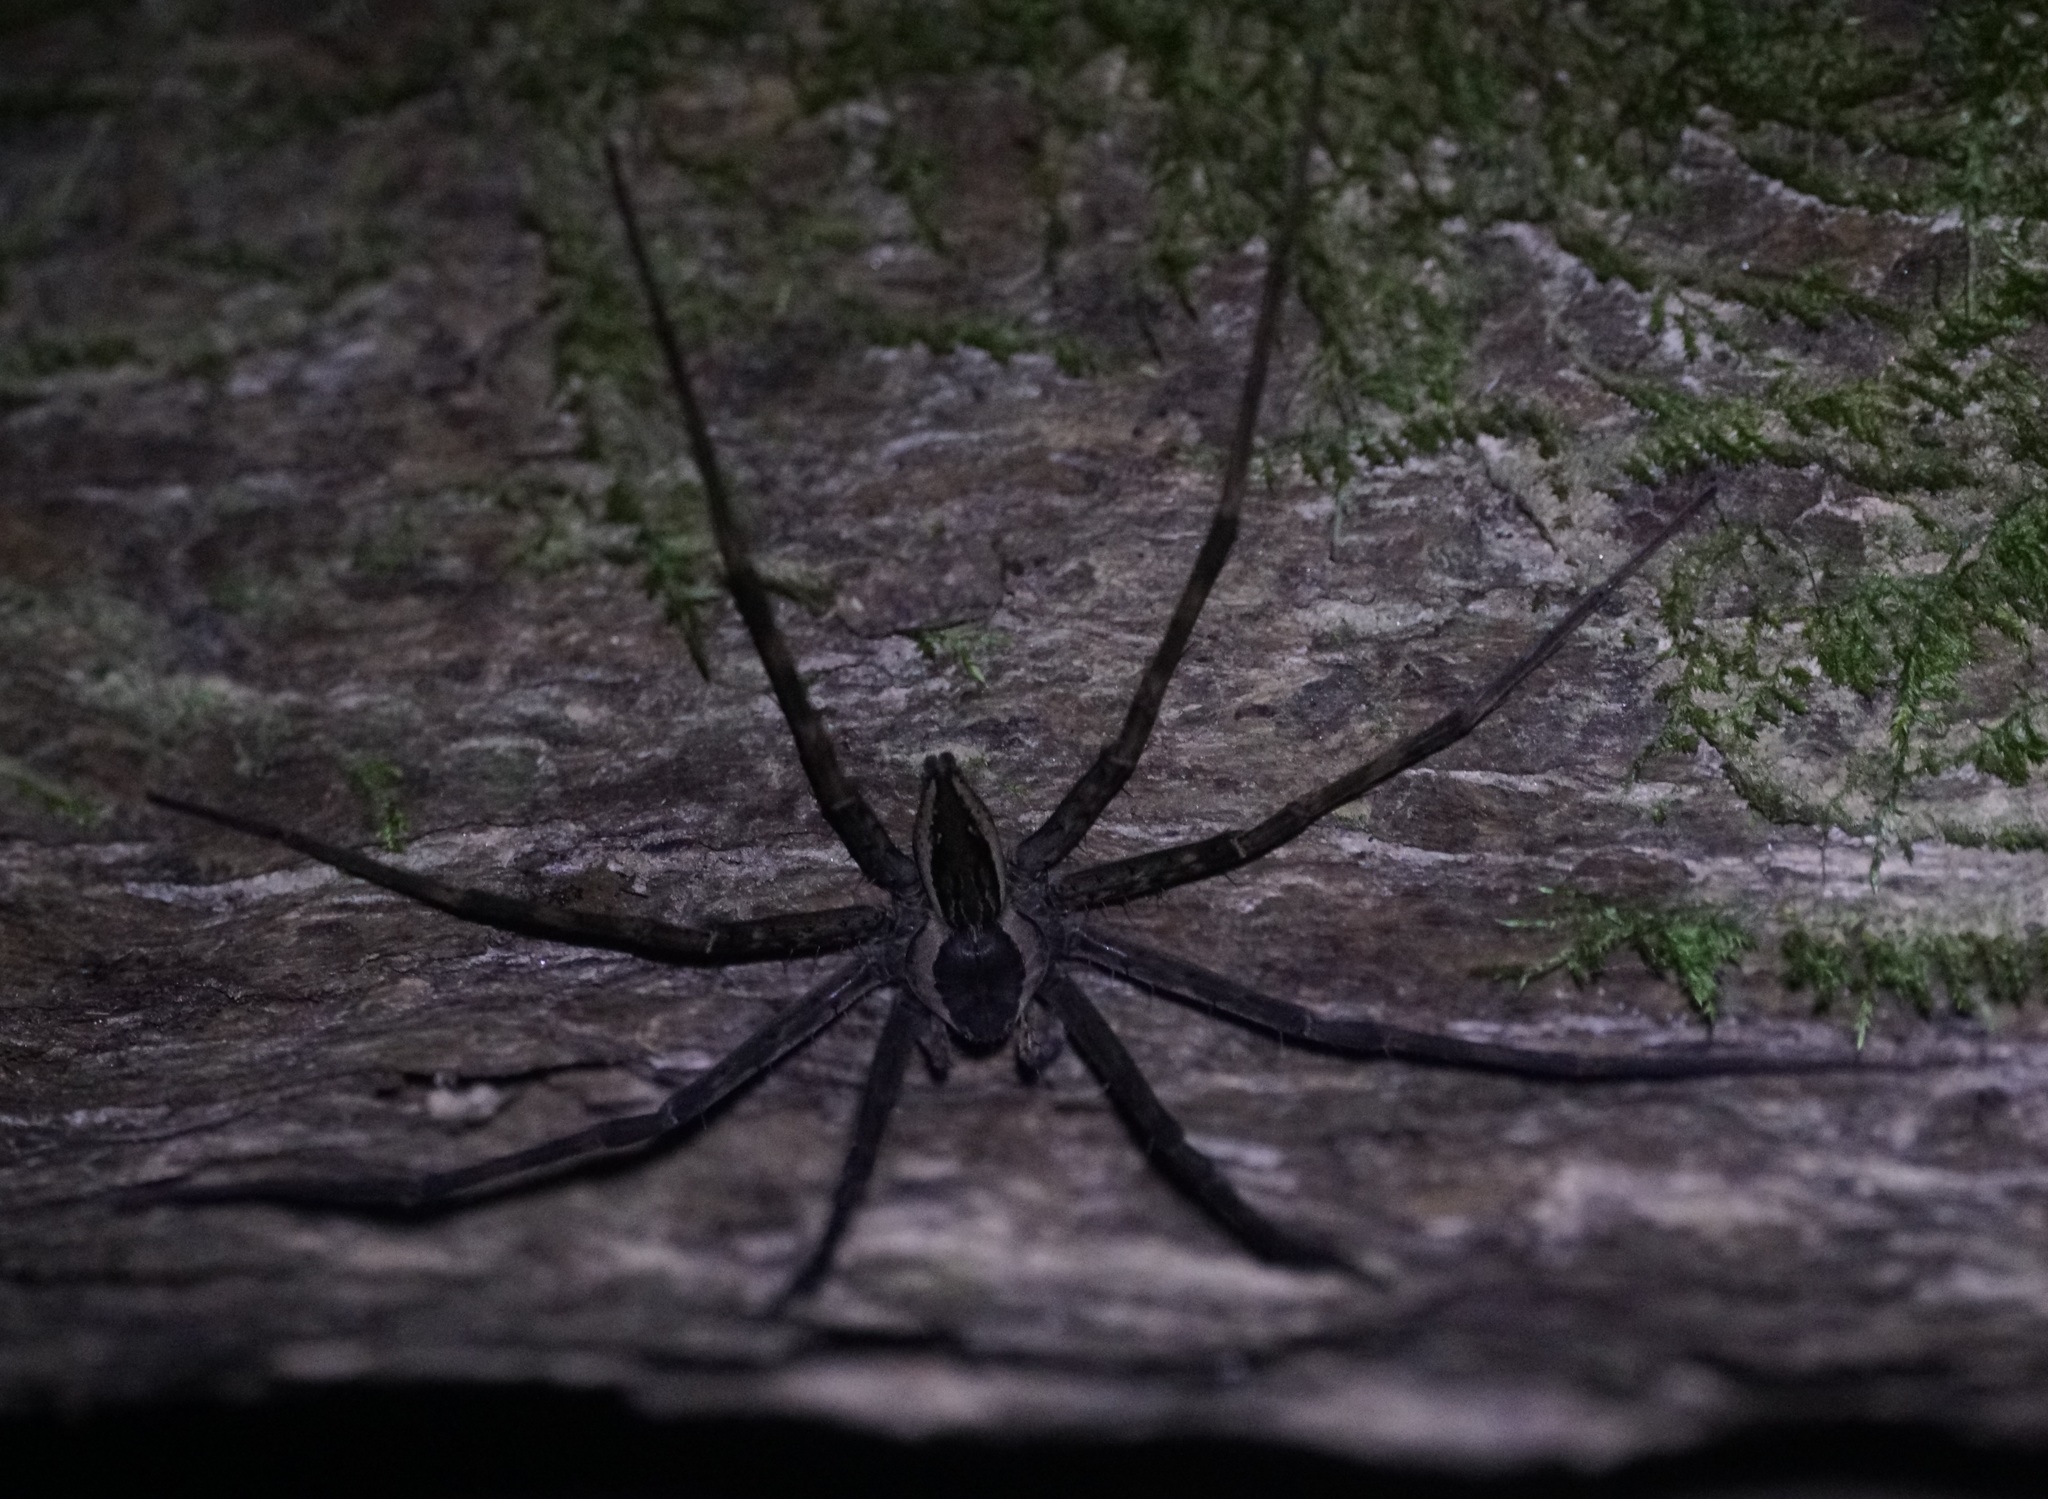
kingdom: Animalia
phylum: Arthropoda
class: Arachnida
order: Araneae
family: Pisauridae
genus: Megadolomedes
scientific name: Megadolomedes trux
